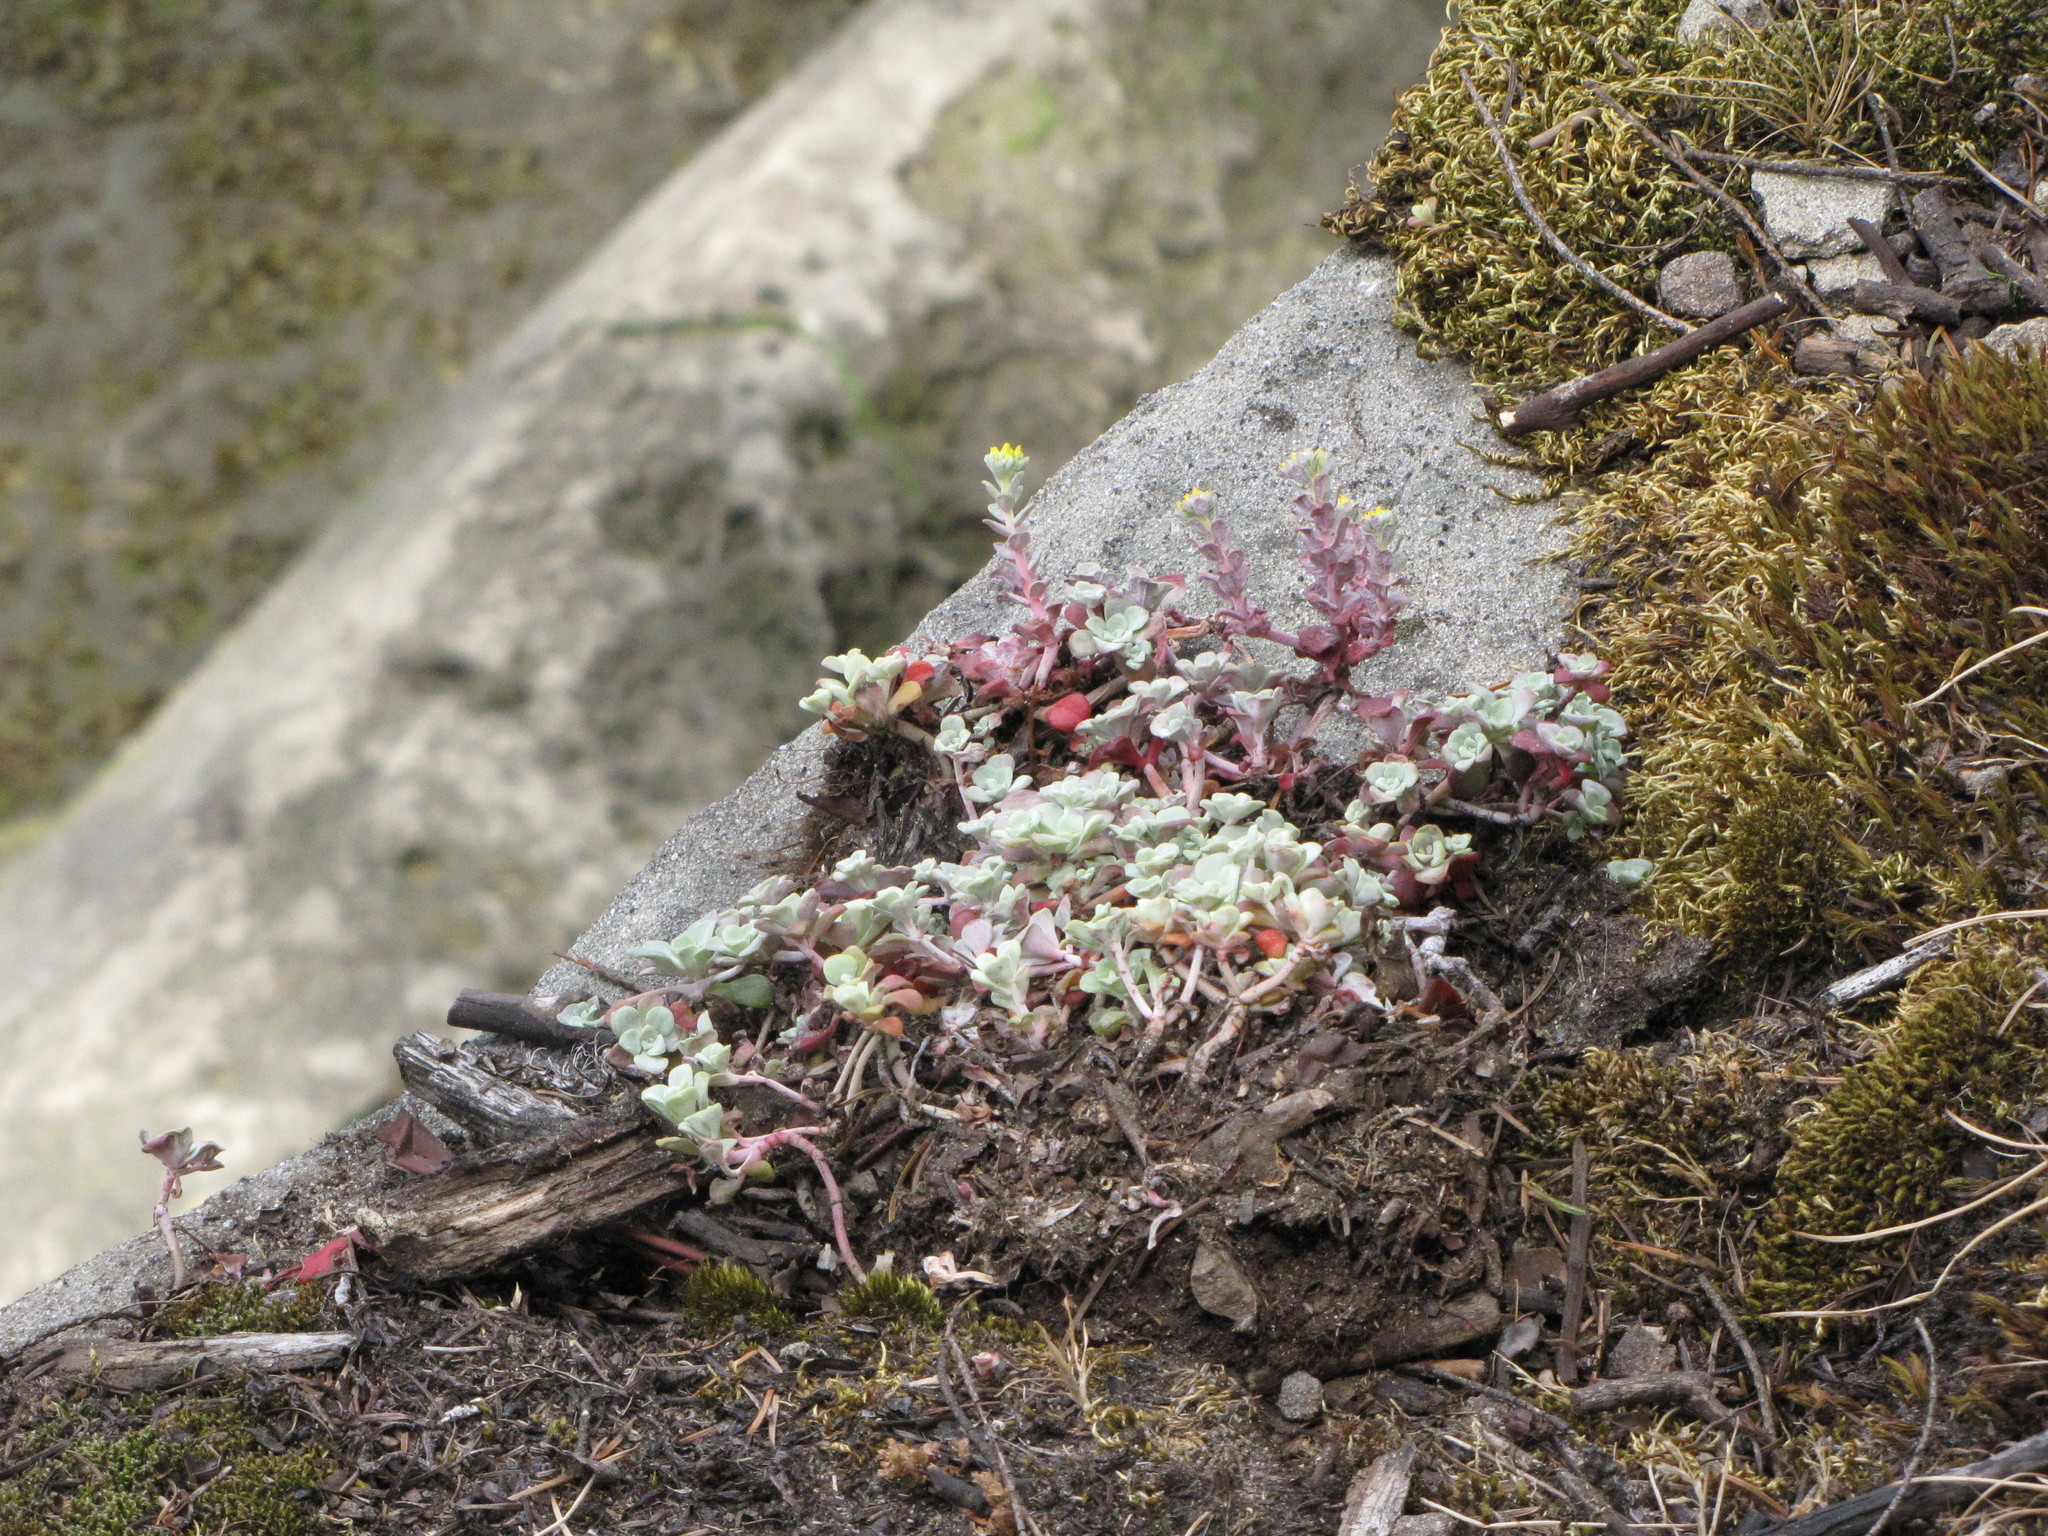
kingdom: Plantae
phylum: Tracheophyta
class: Magnoliopsida
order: Saxifragales
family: Crassulaceae
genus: Sedum
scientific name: Sedum spathulifolium
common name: Colorado stonecrop
